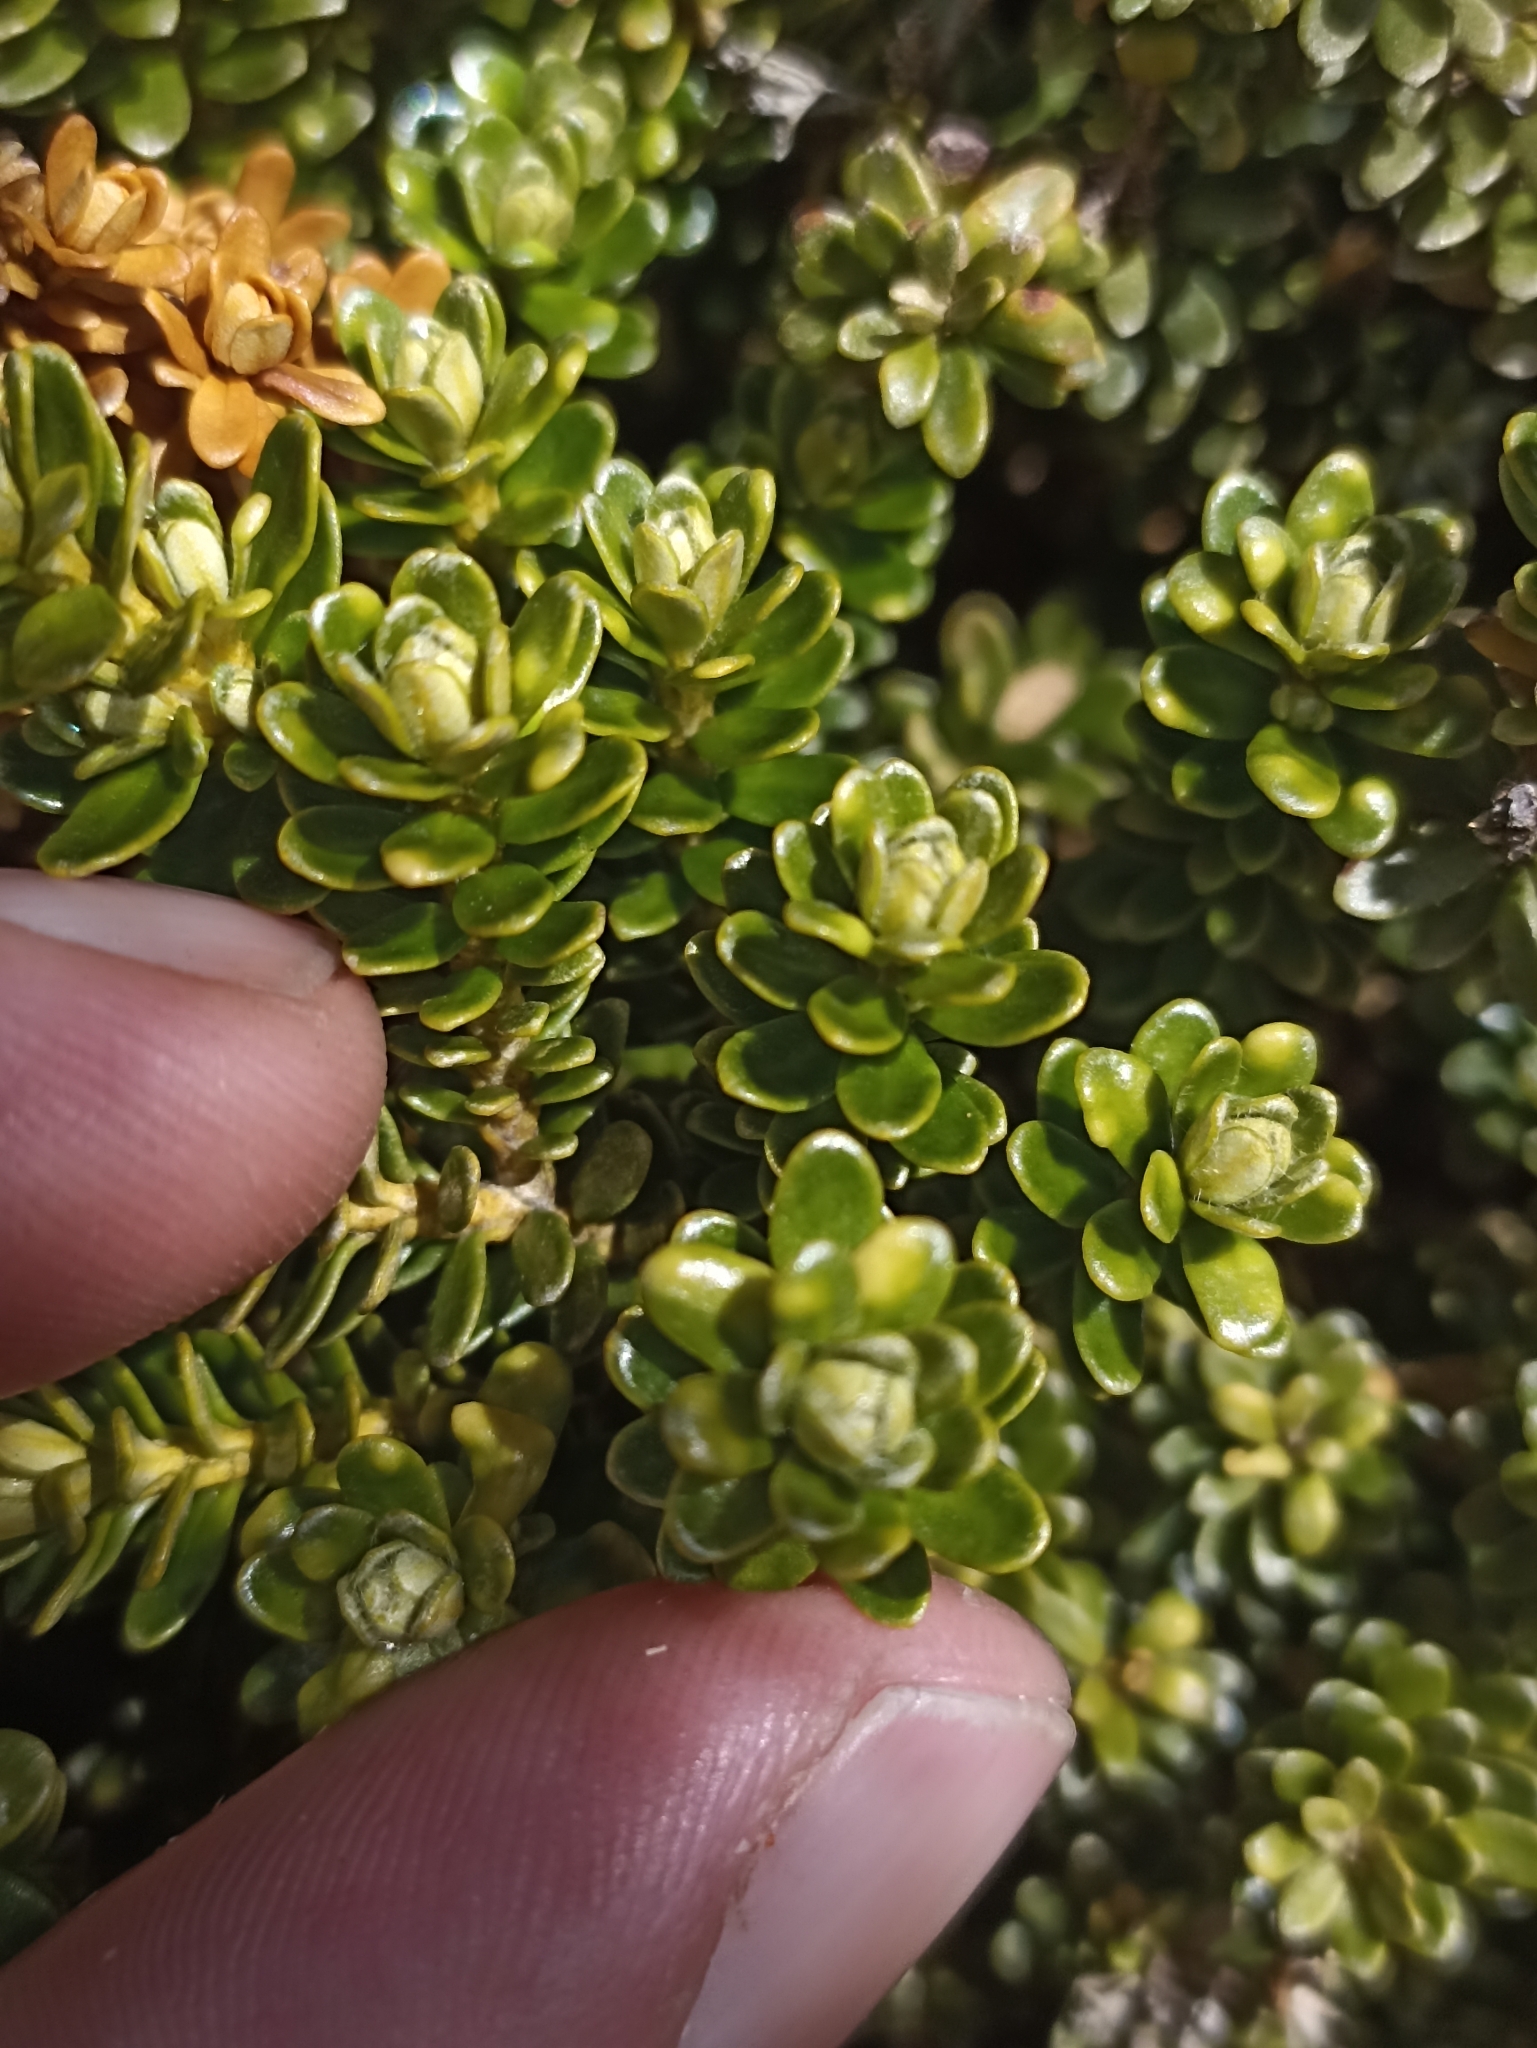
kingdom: Plantae
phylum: Tracheophyta
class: Magnoliopsida
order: Asterales
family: Asteraceae
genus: Ozothamnus
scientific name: Ozothamnus leptophyllus
